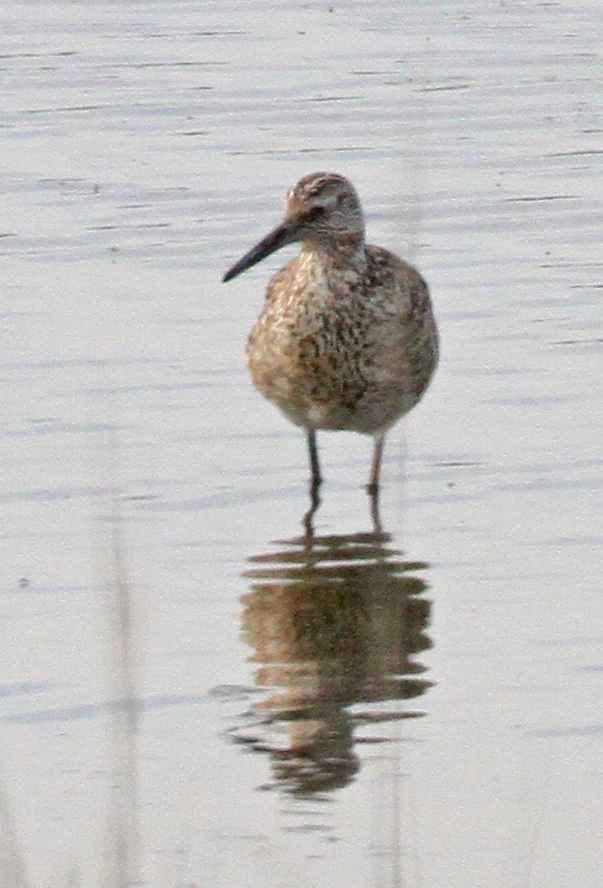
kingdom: Animalia
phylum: Chordata
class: Aves
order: Charadriiformes
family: Scolopacidae
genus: Tringa
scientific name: Tringa semipalmata
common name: Willet
